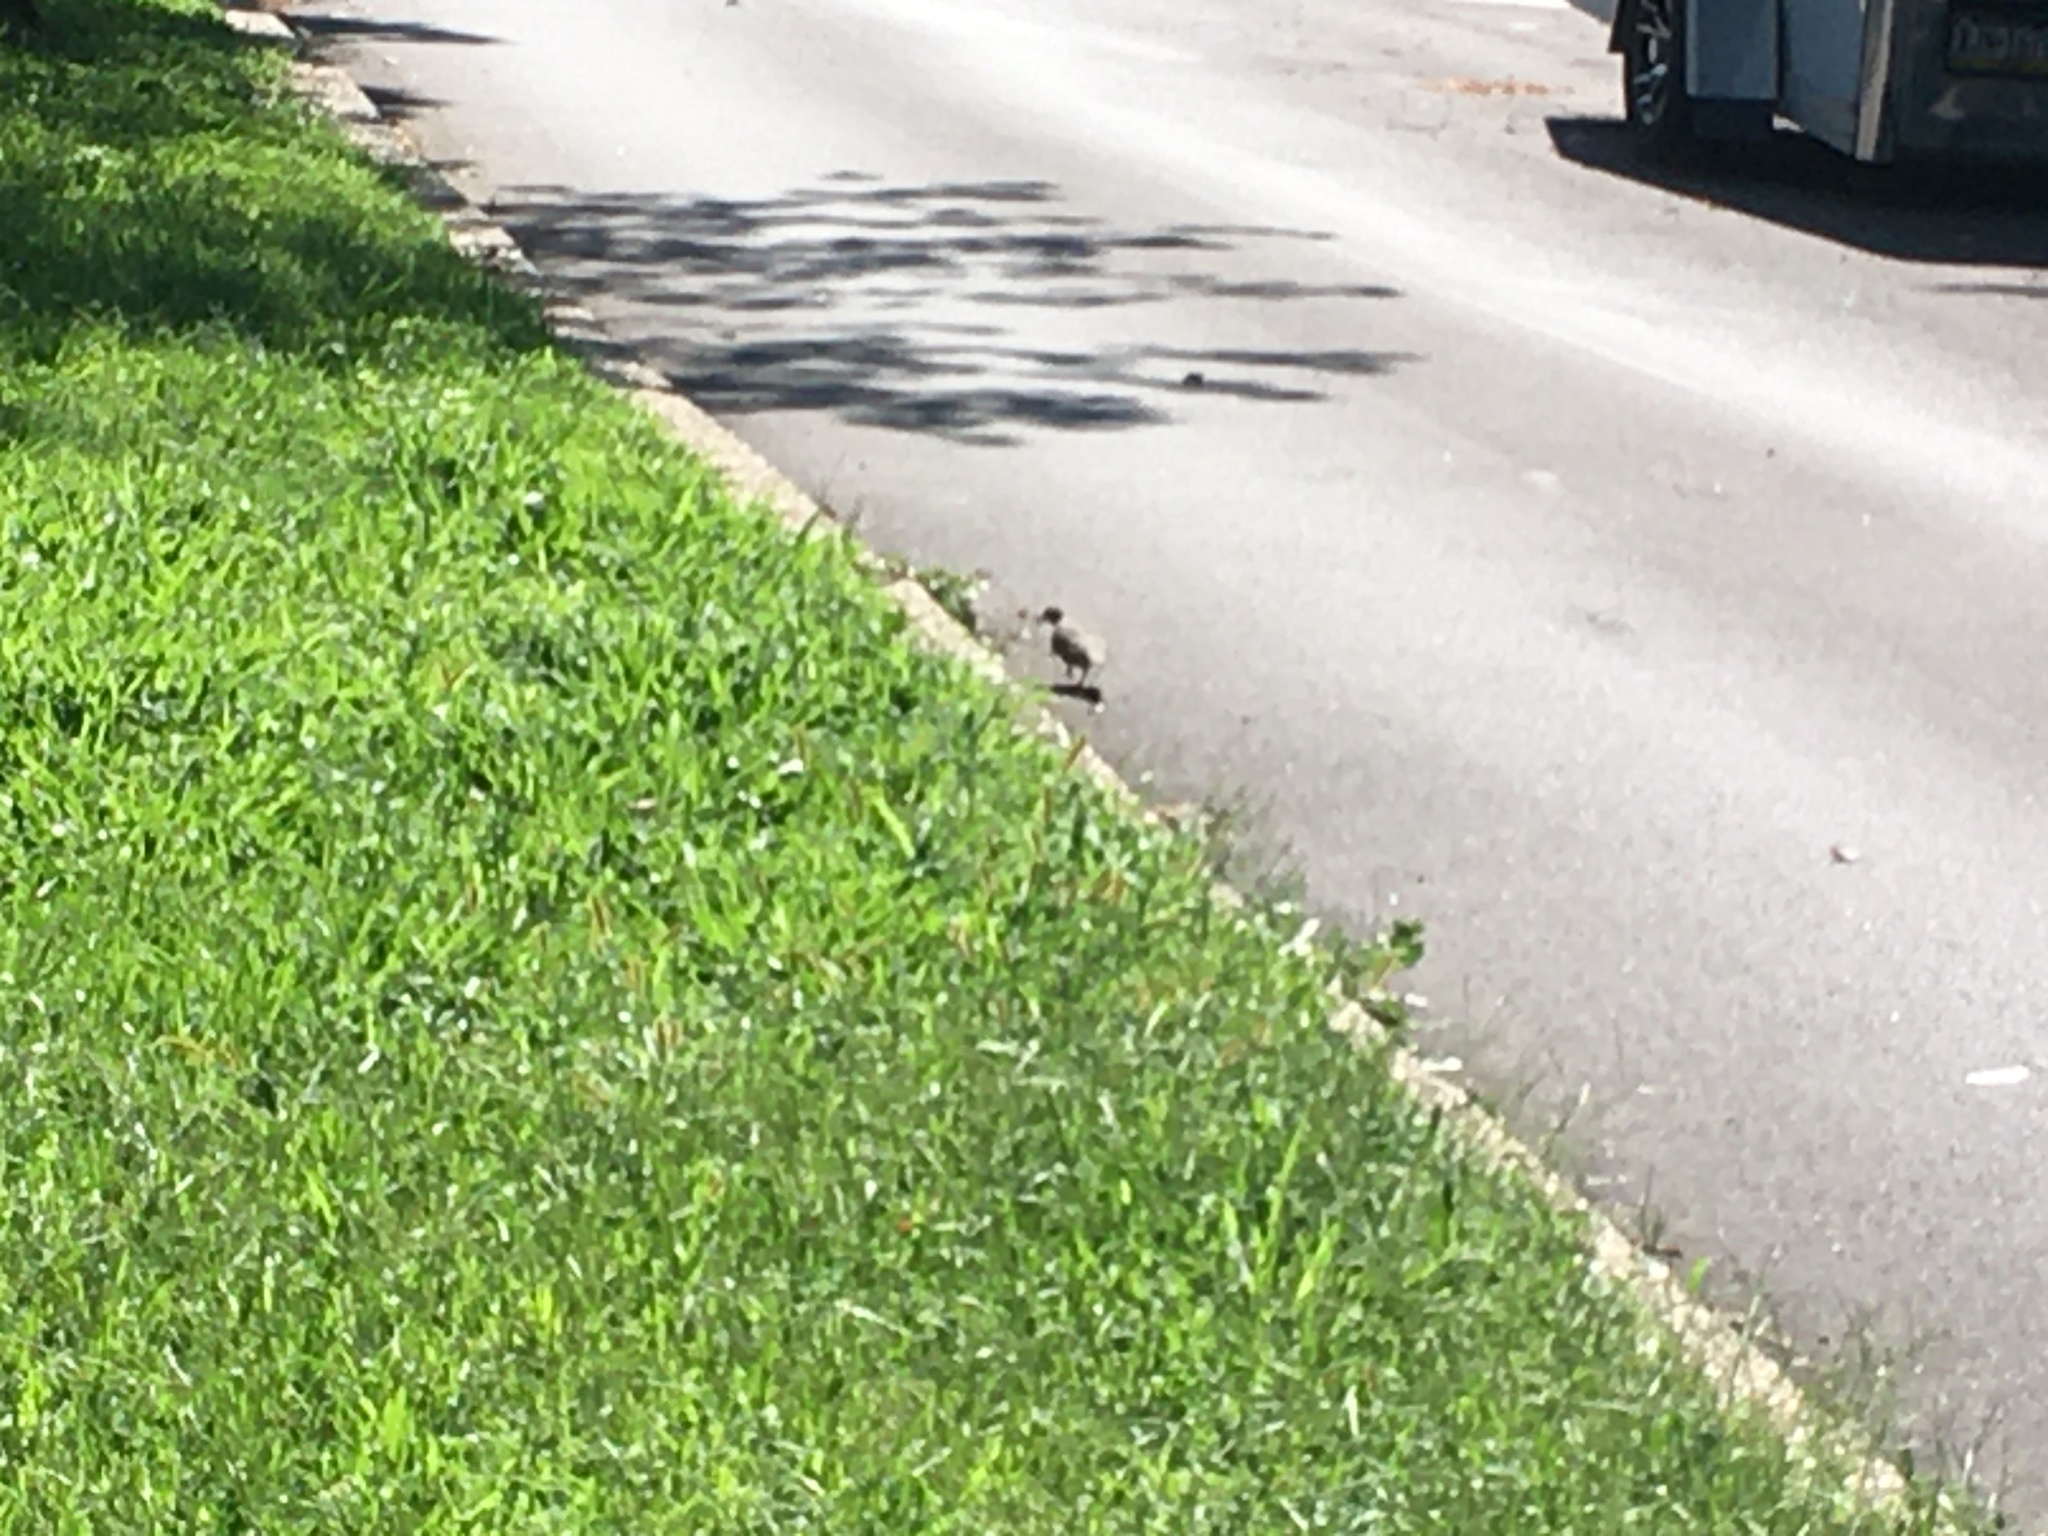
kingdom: Animalia
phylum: Chordata
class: Aves
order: Columbiformes
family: Columbidae
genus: Zenaida
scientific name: Zenaida macroura
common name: Mourning dove
